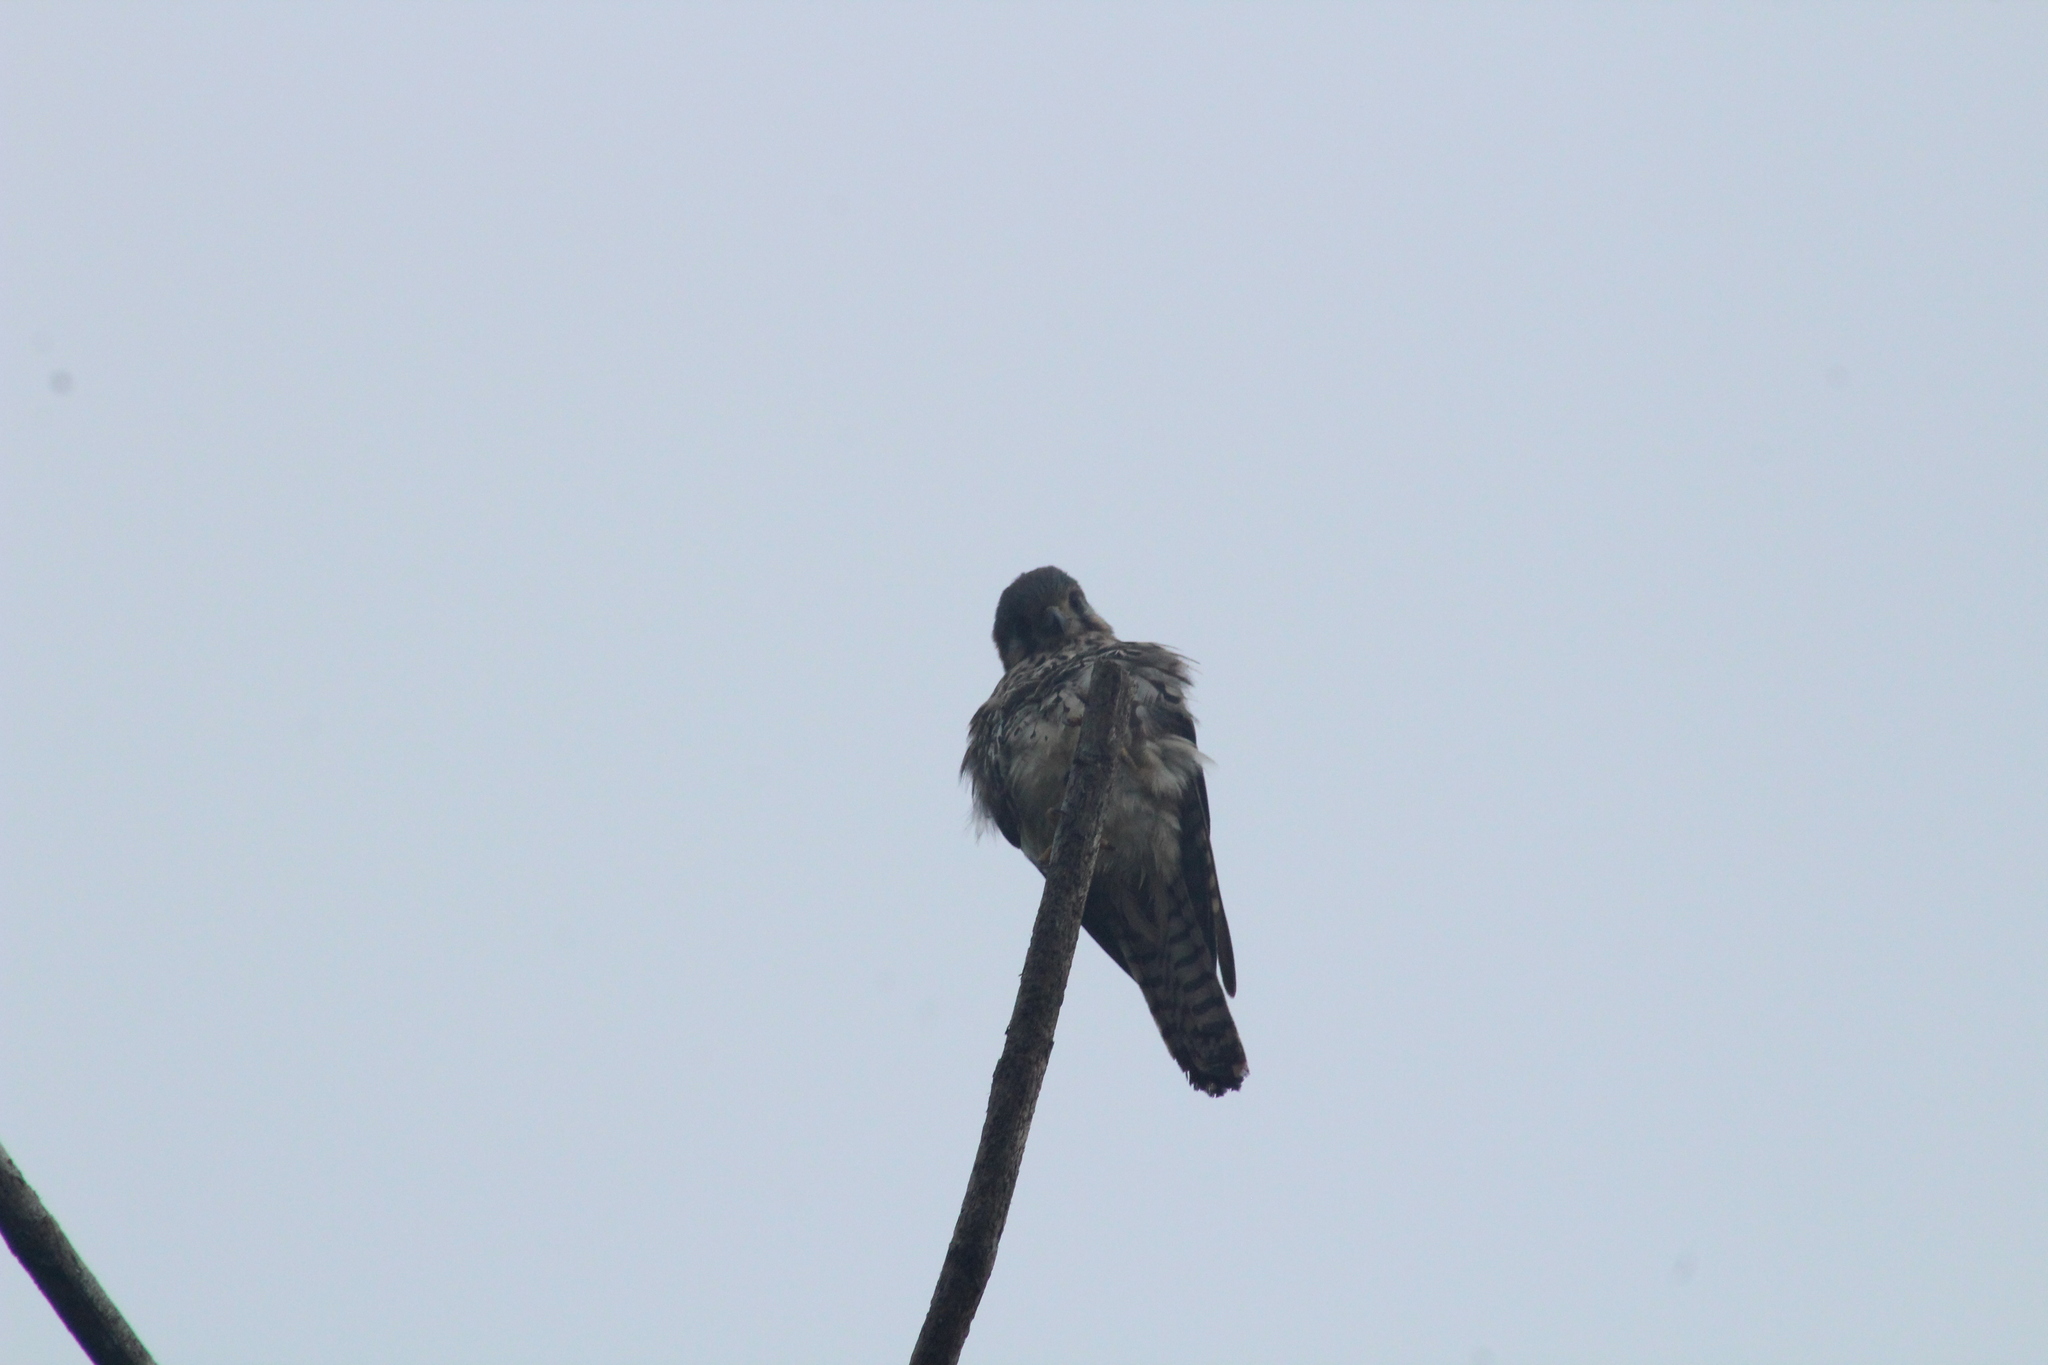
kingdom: Animalia
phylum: Chordata
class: Aves
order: Falconiformes
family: Falconidae
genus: Falco
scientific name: Falco sparverius
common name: American kestrel
